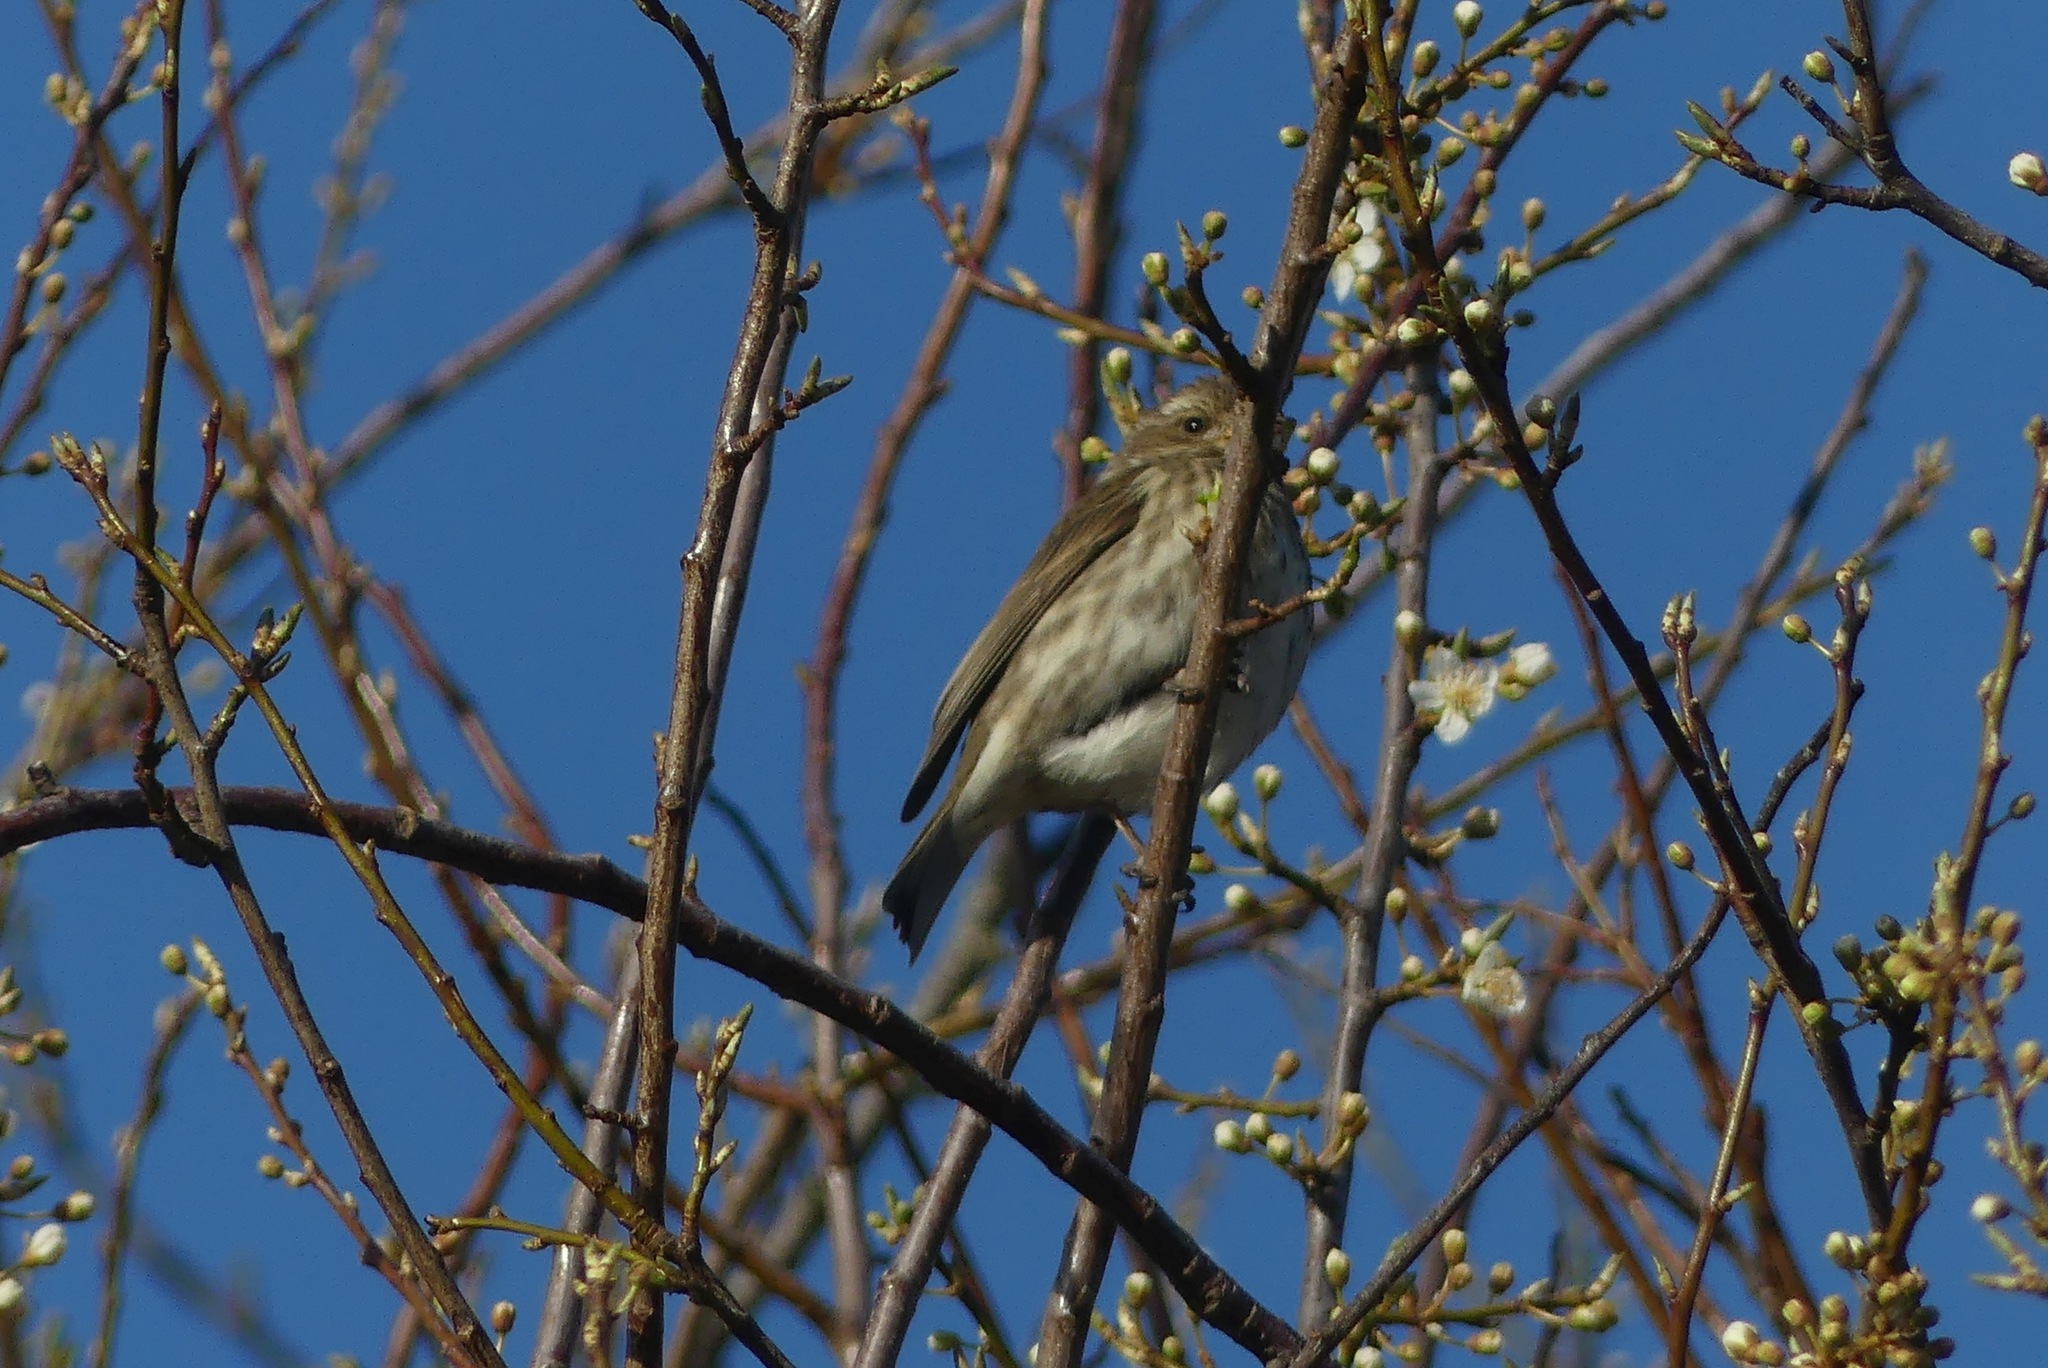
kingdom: Animalia
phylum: Chordata
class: Aves
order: Passeriformes
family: Fringillidae
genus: Haemorhous
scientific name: Haemorhous purpureus
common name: Purple finch
